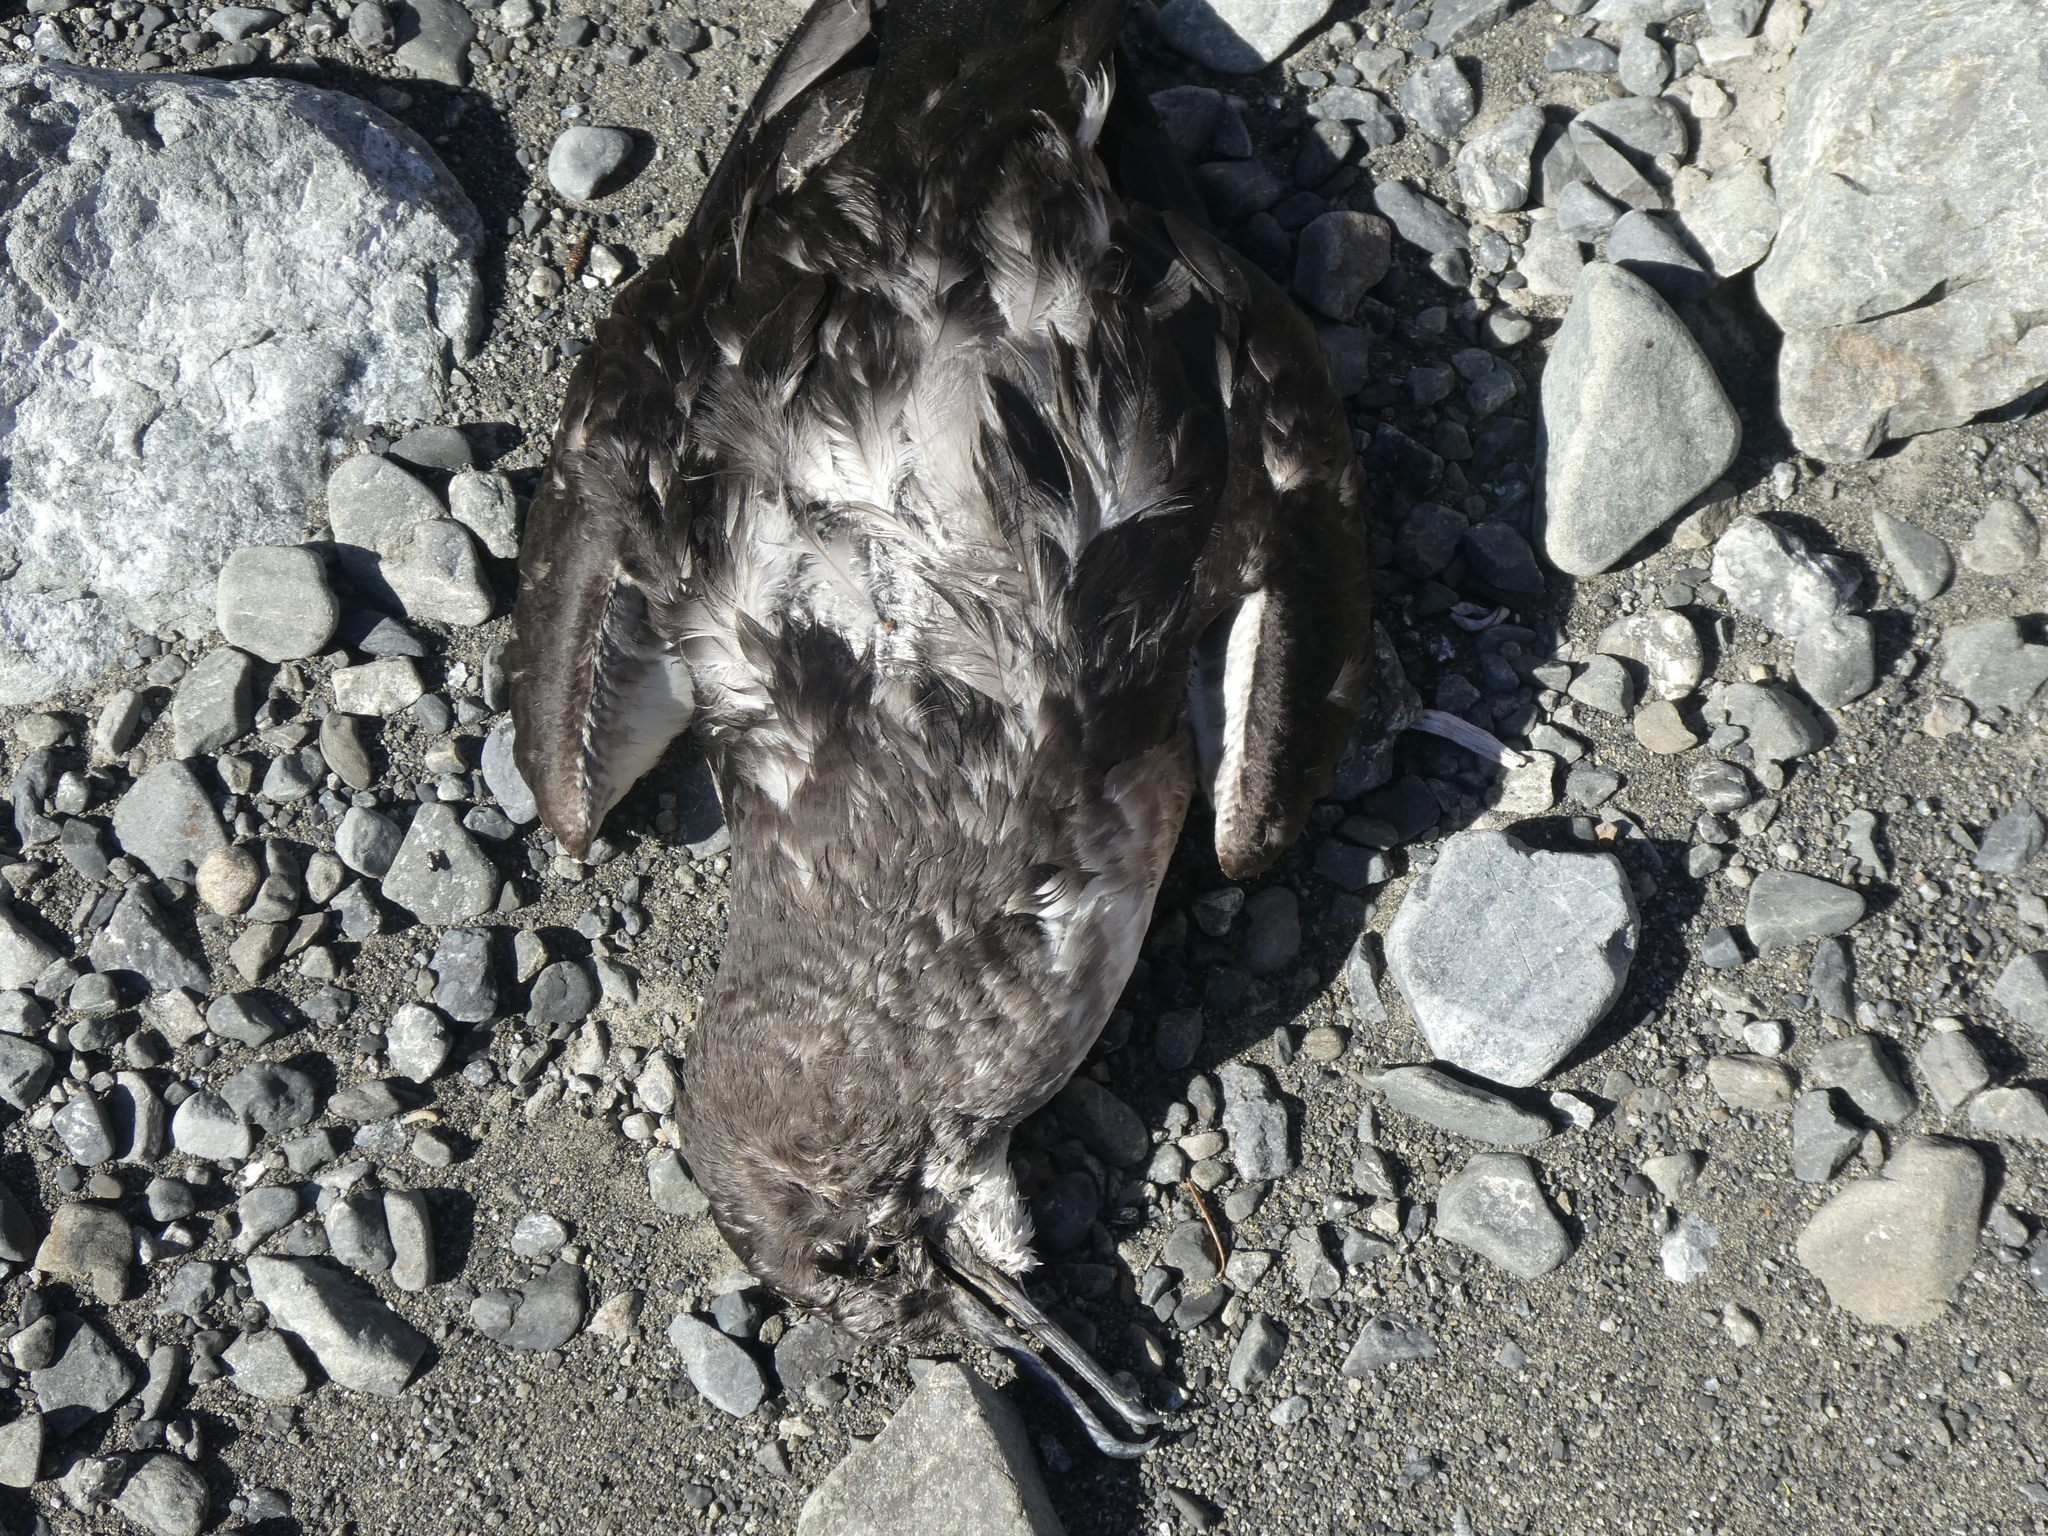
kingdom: Animalia
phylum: Chordata
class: Aves
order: Procellariiformes
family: Procellariidae
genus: Puffinus
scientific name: Puffinus huttoni
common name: Hutton's shearwater
